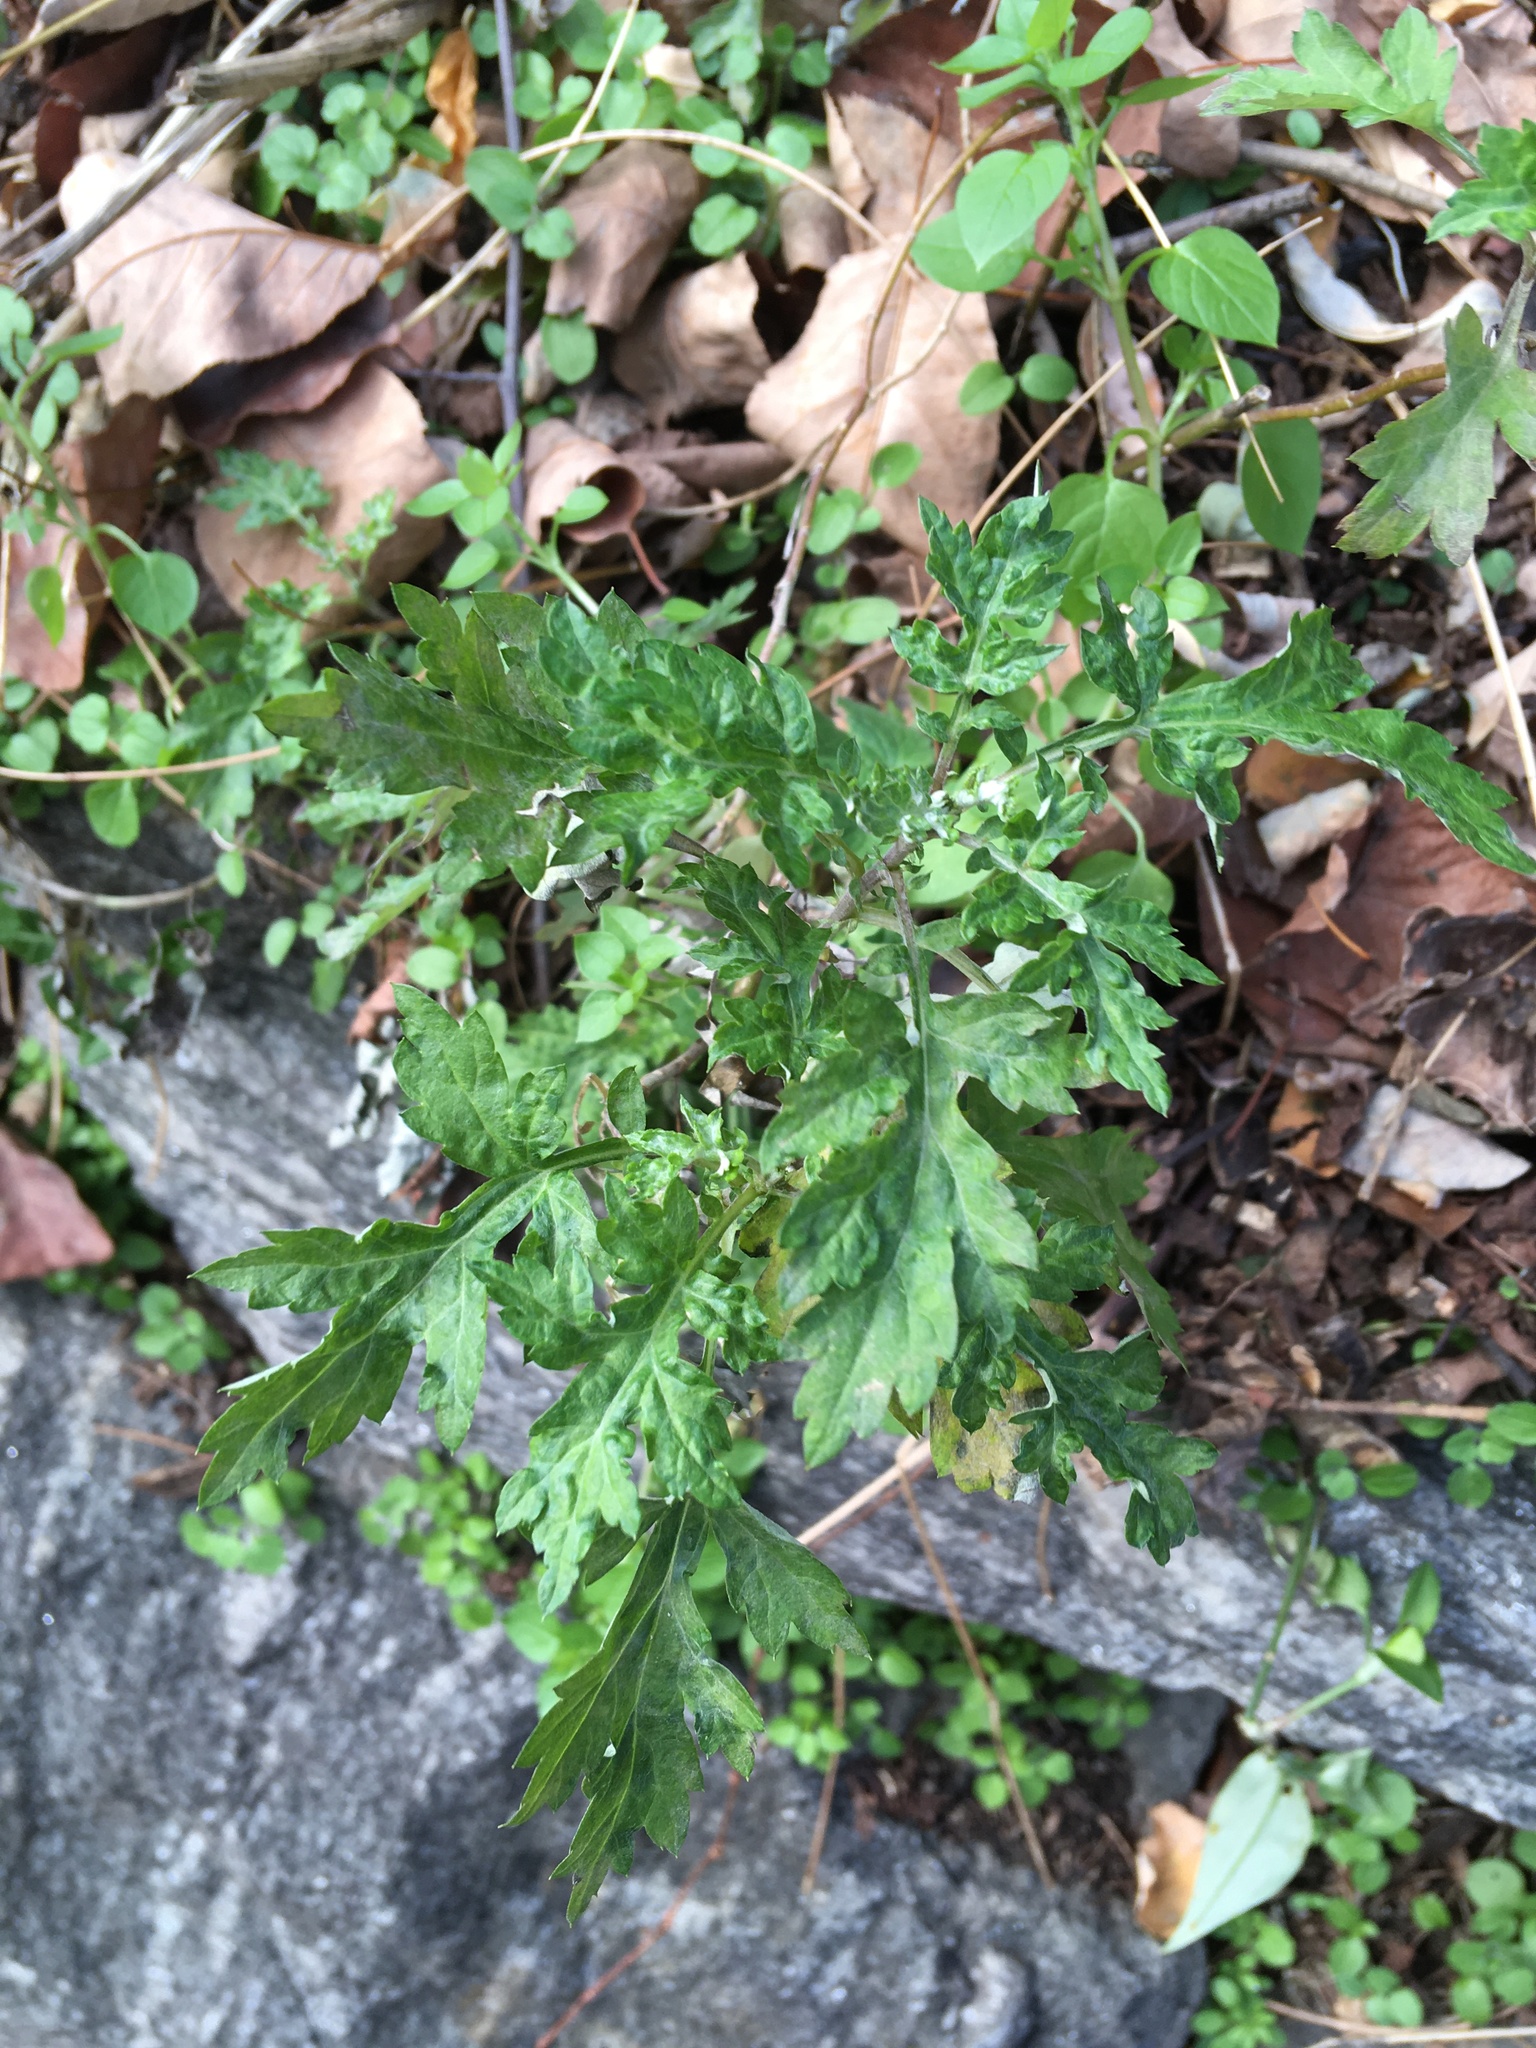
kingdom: Plantae
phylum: Tracheophyta
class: Magnoliopsida
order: Asterales
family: Asteraceae
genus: Artemisia
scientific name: Artemisia vulgaris
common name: Mugwort
